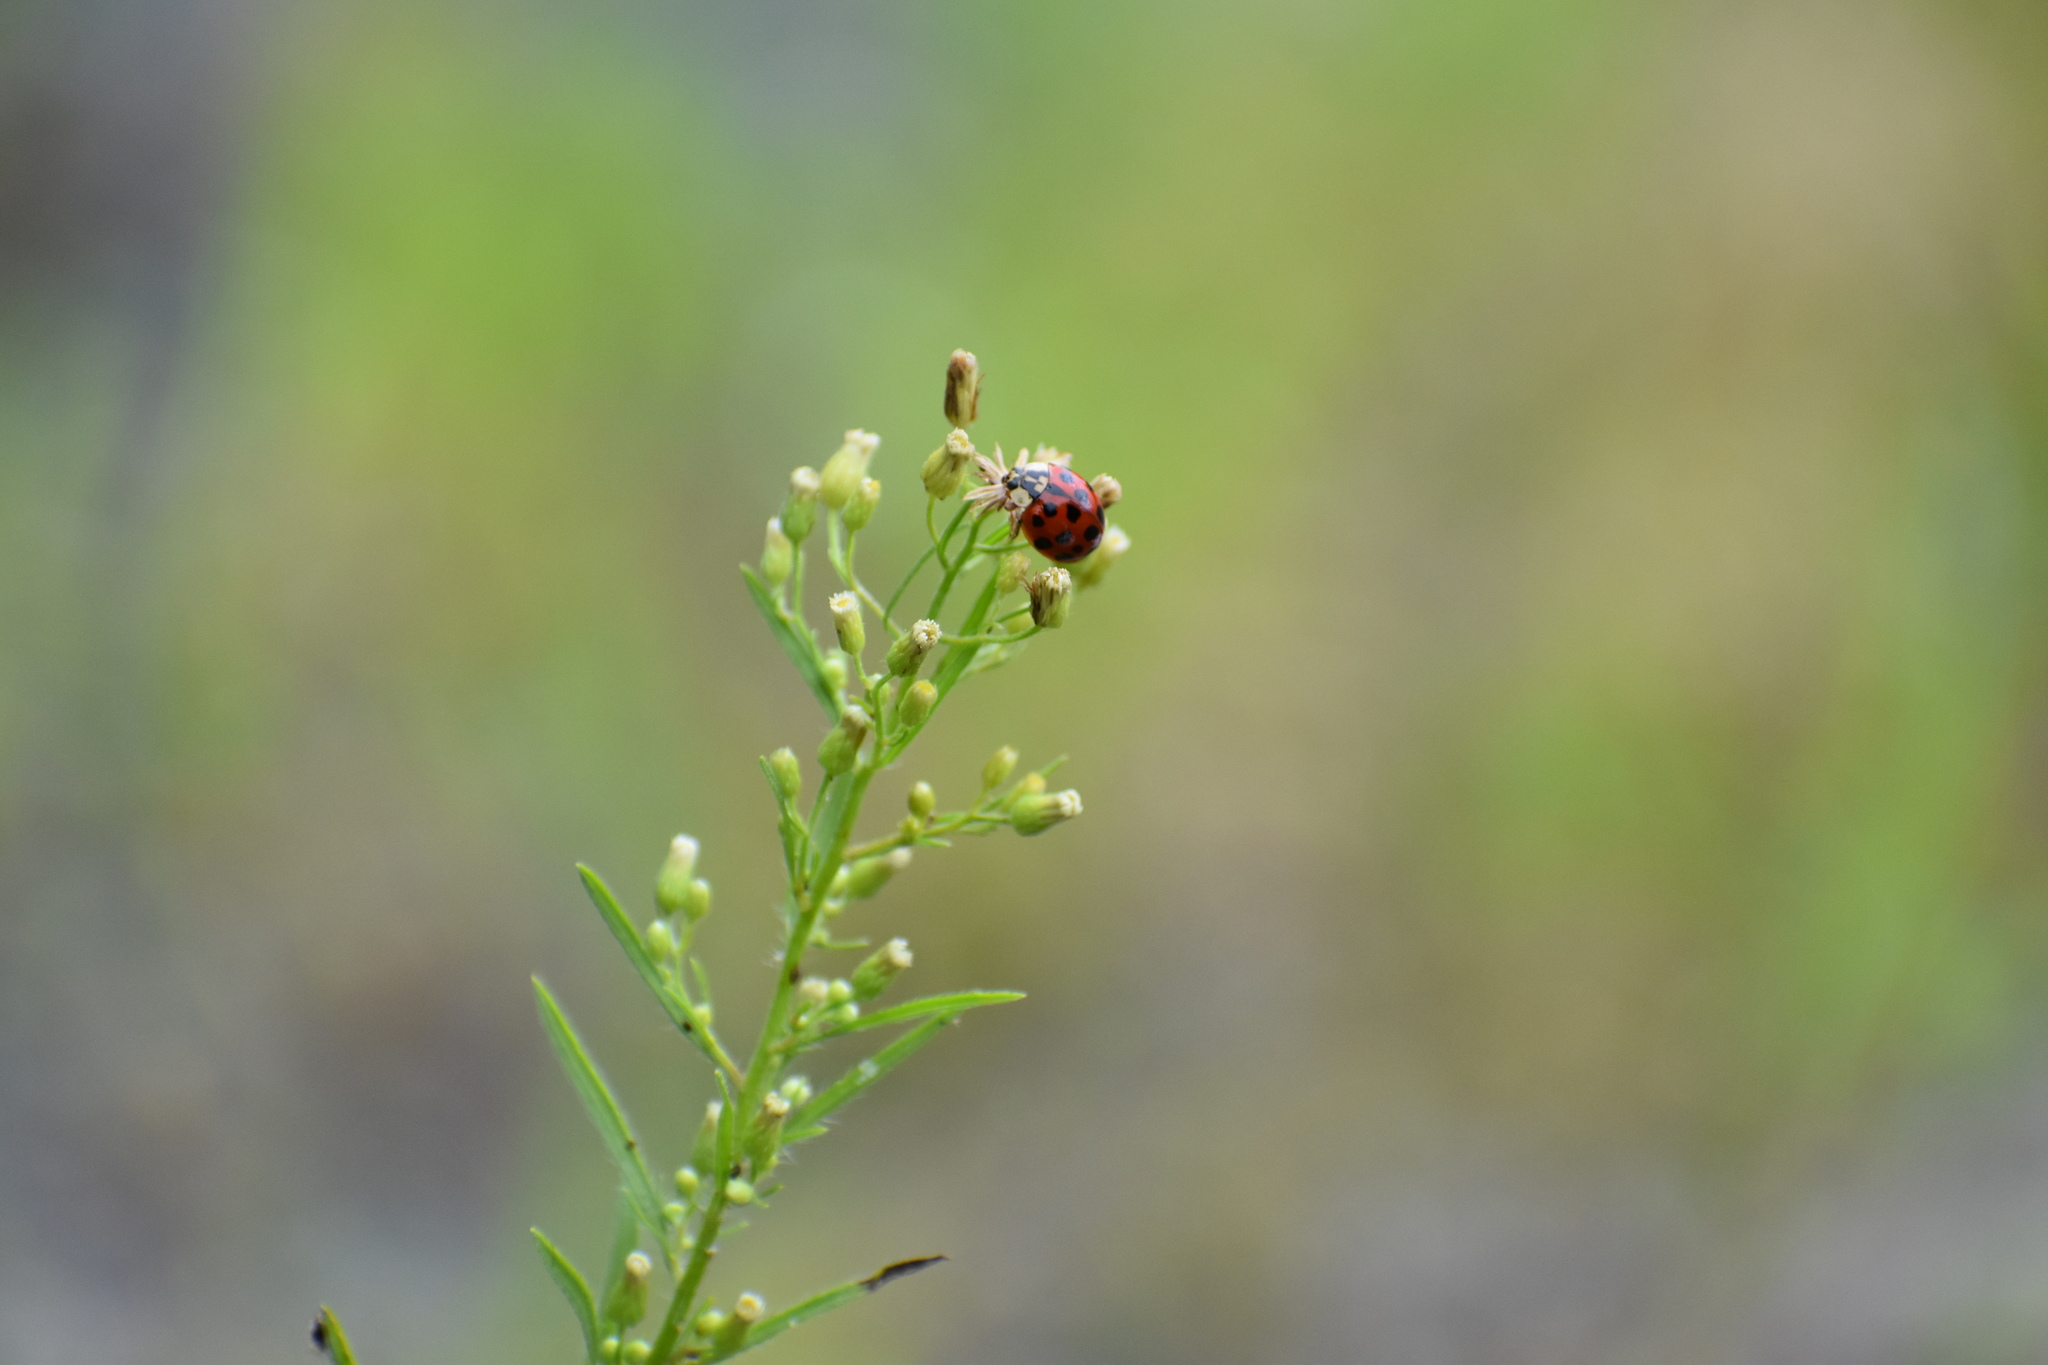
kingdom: Animalia
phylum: Arthropoda
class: Insecta
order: Coleoptera
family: Coccinellidae
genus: Harmonia
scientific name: Harmonia axyridis
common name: Harlequin ladybird
